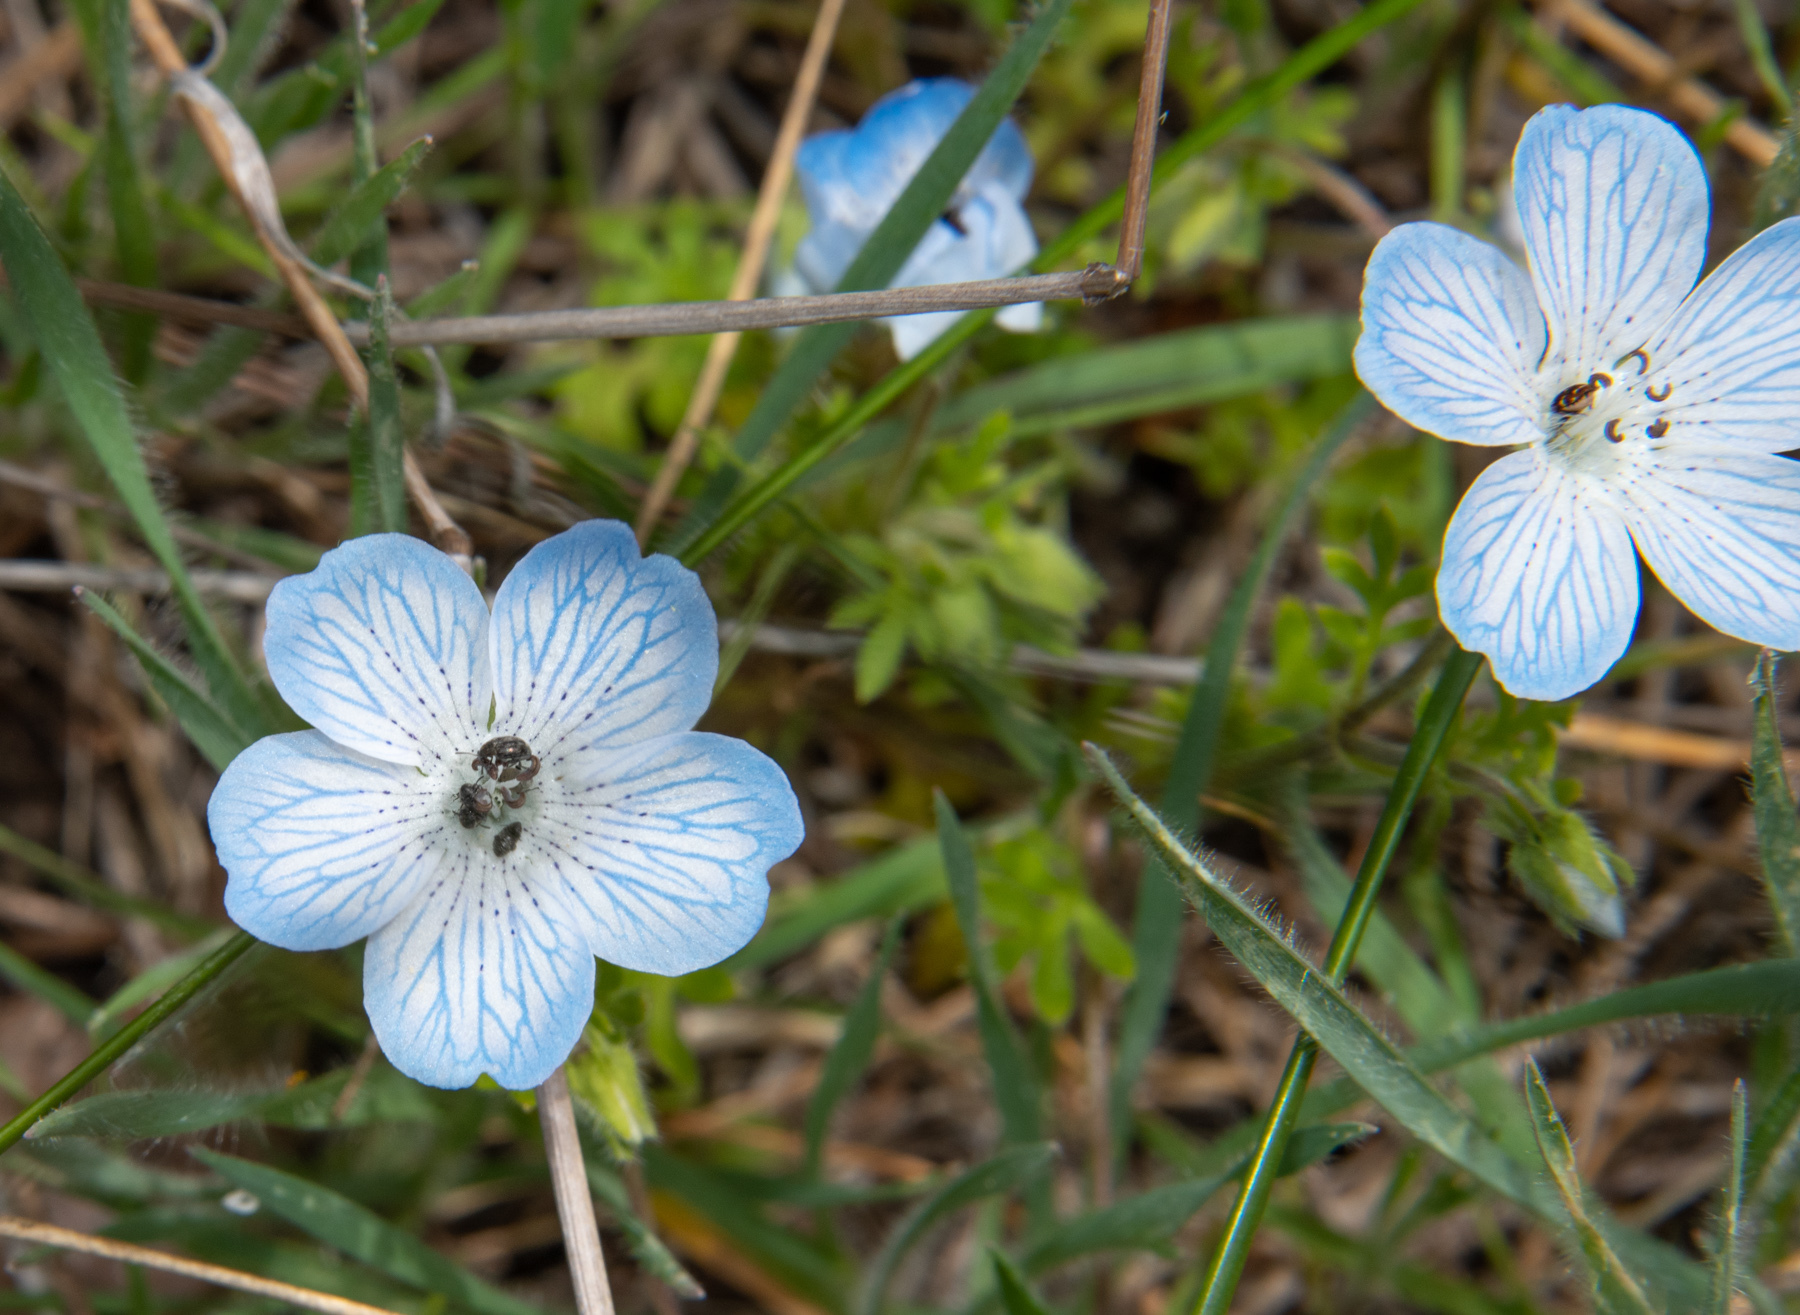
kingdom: Plantae
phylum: Tracheophyta
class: Magnoliopsida
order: Boraginales
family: Hydrophyllaceae
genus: Nemophila
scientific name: Nemophila menziesii
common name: Baby's-blue-eyes
